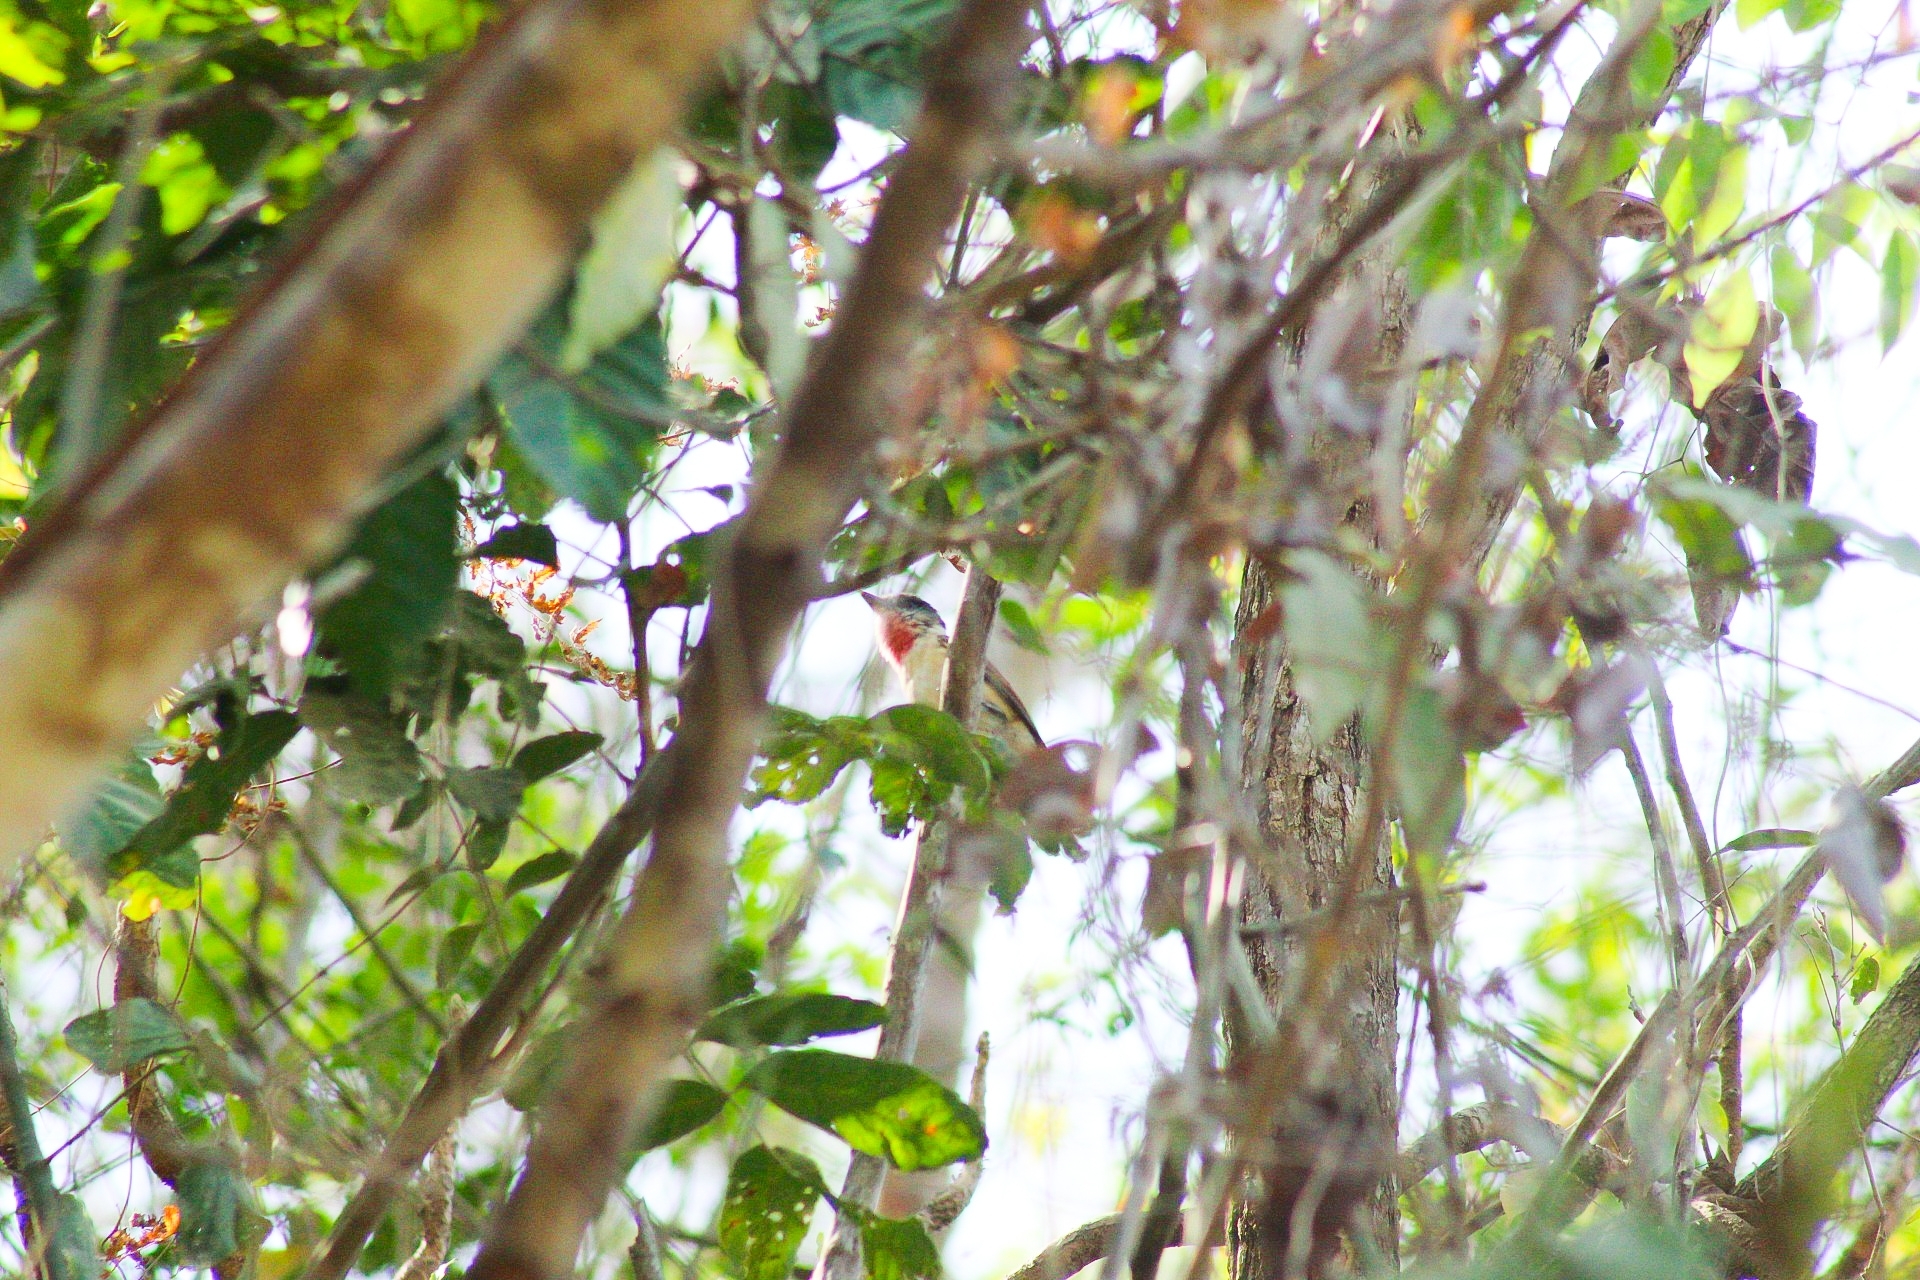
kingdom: Animalia
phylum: Chordata
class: Aves
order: Passeriformes
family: Cotingidae
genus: Pachyramphus
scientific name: Pachyramphus aglaiae
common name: Rose-throated becard
